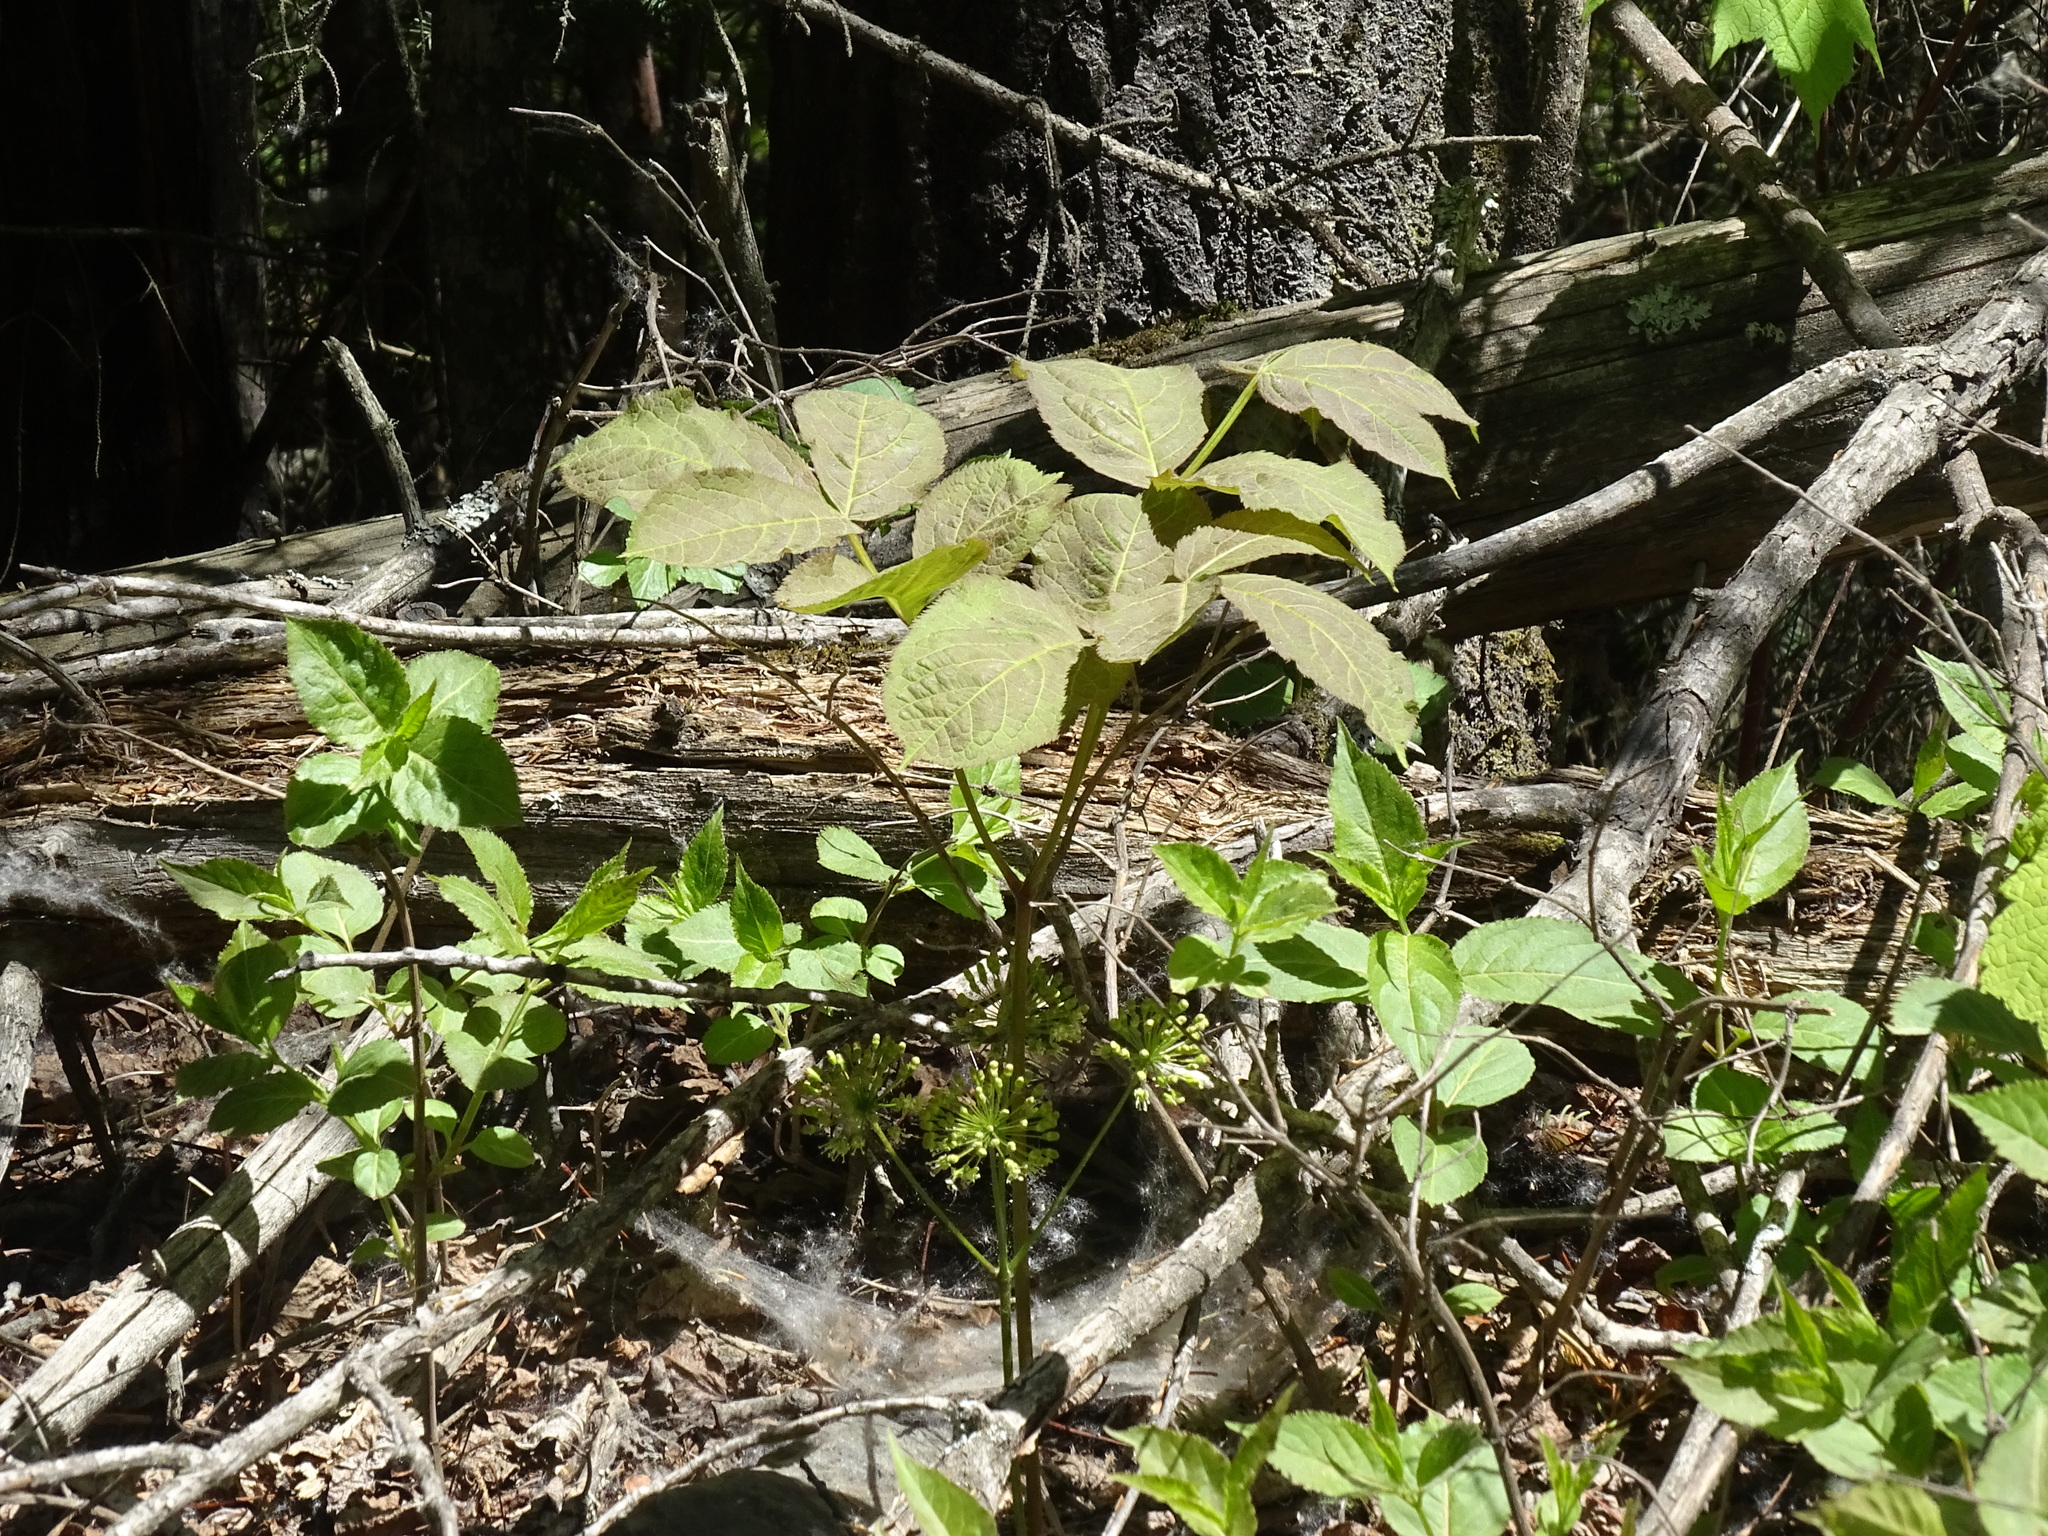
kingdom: Plantae
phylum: Tracheophyta
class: Magnoliopsida
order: Apiales
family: Araliaceae
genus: Aralia
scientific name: Aralia nudicaulis
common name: Wild sarsaparilla
